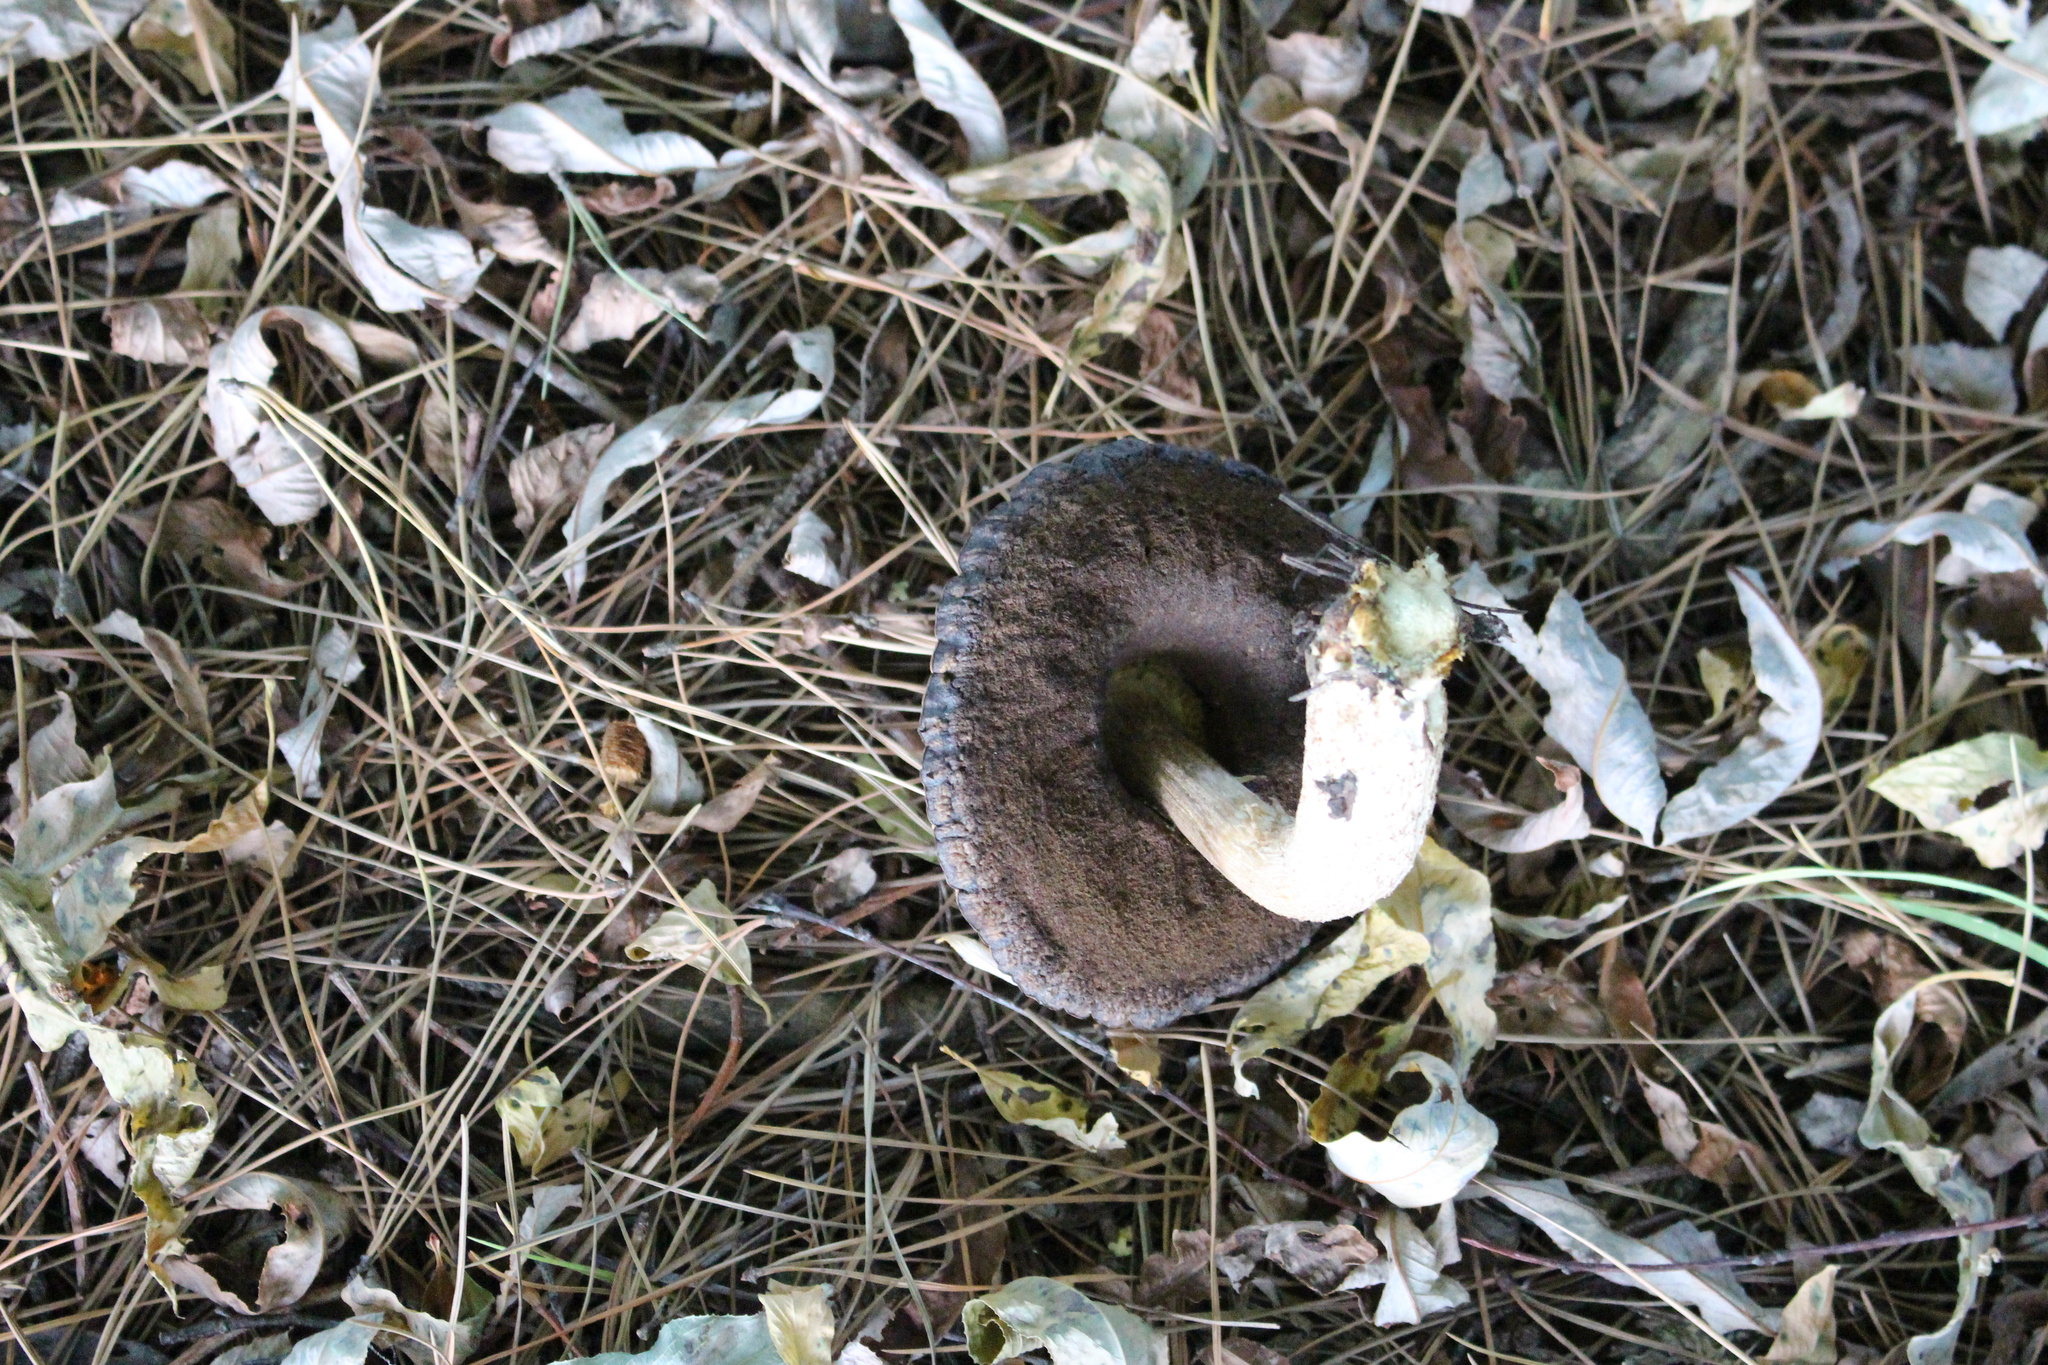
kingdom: Fungi
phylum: Basidiomycota
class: Agaricomycetes
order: Boletales
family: Boletaceae
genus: Leccinum
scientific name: Leccinum scabrum
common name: Blushing bolete
